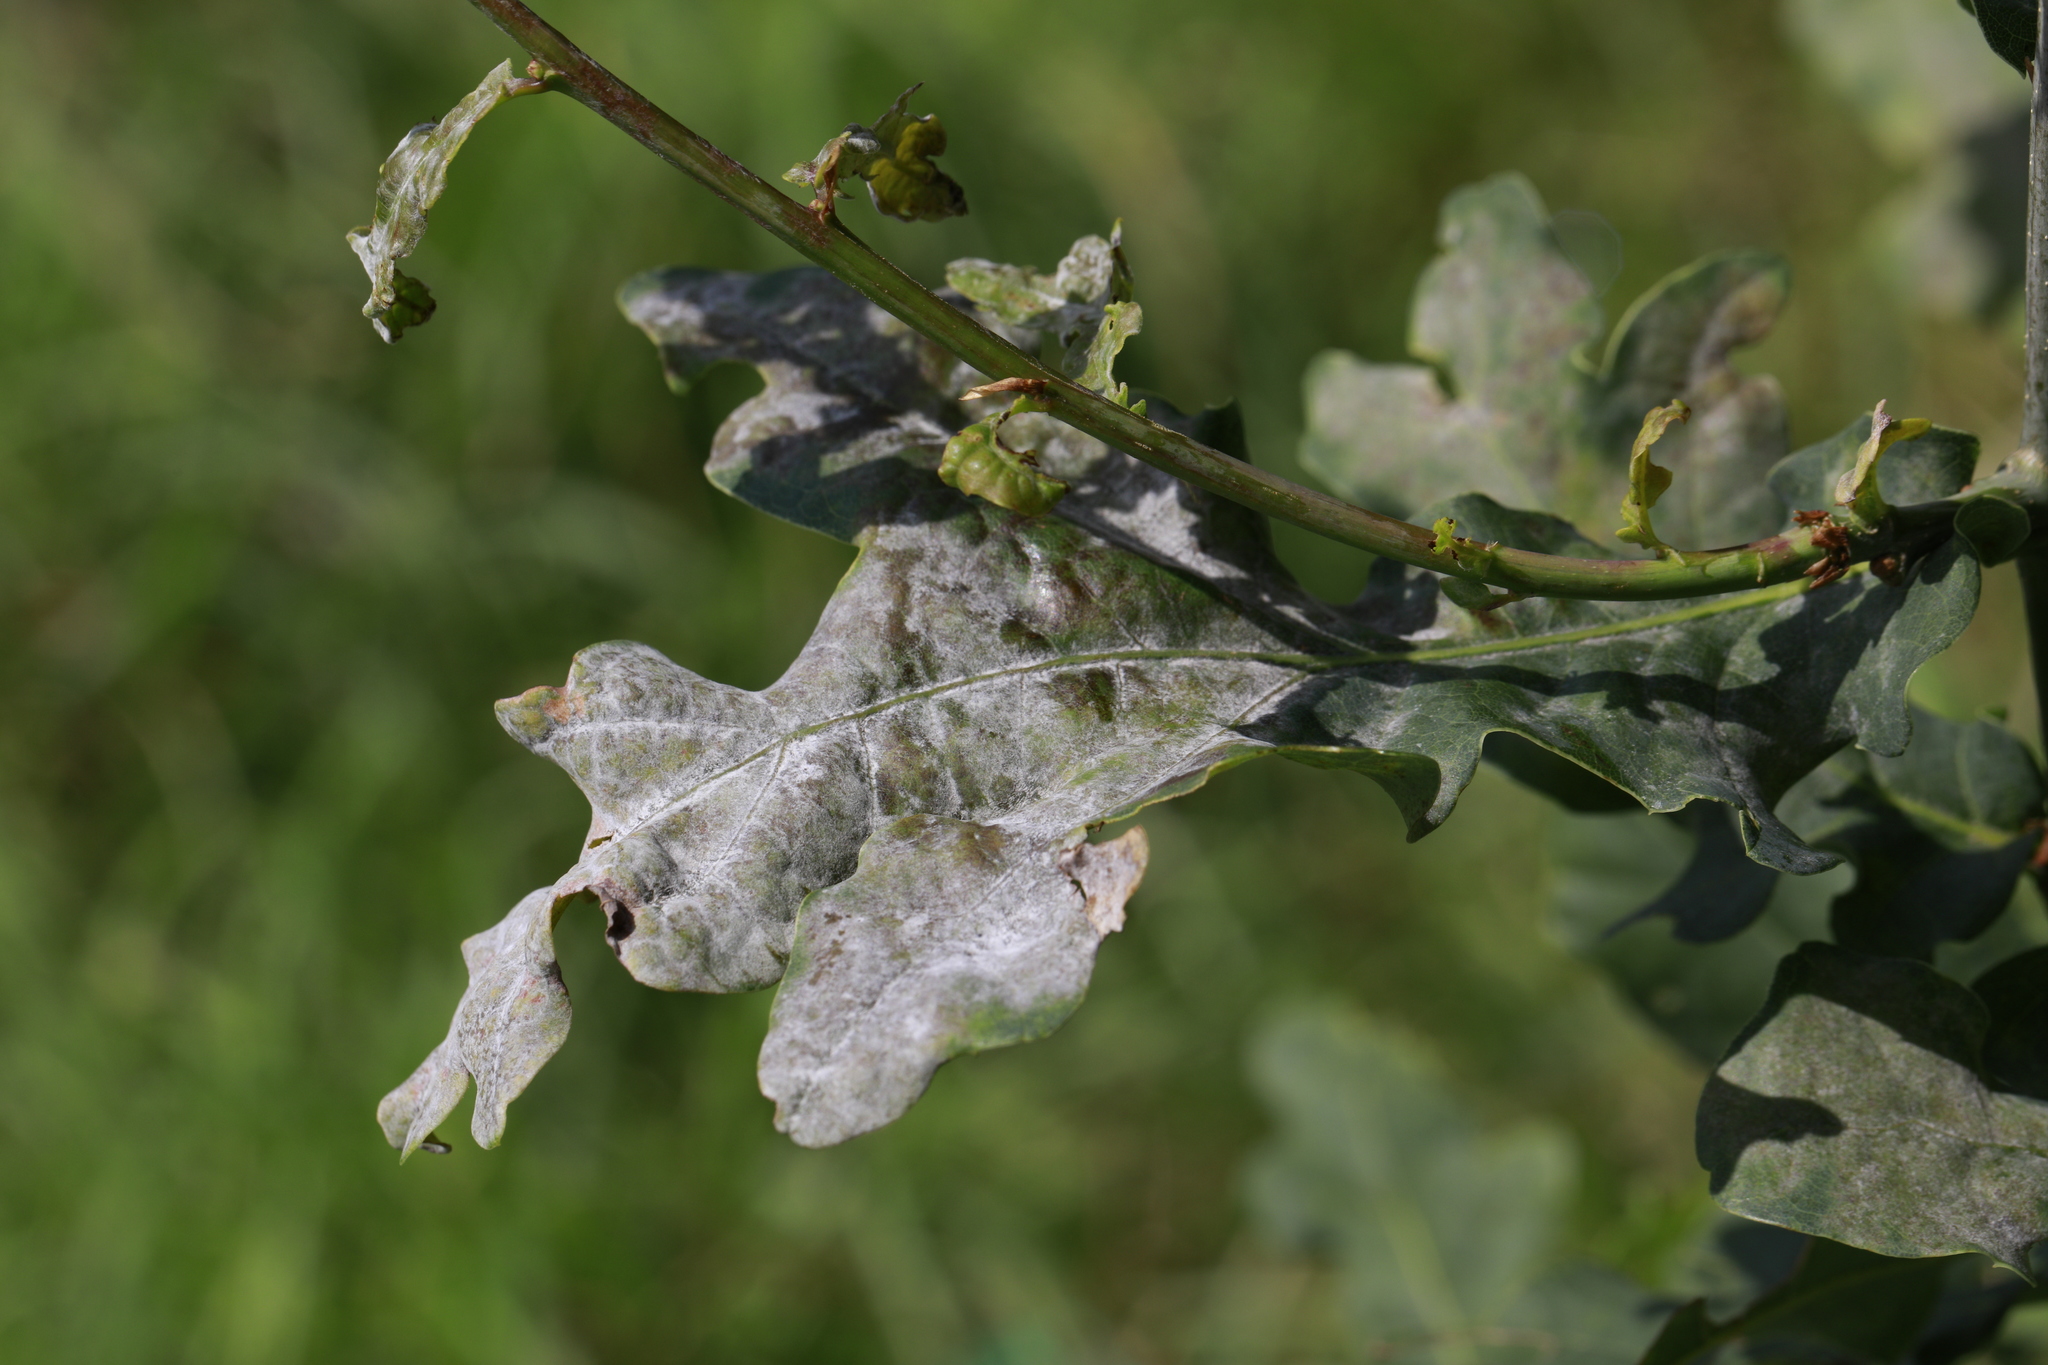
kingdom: Fungi
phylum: Ascomycota
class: Leotiomycetes
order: Helotiales
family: Erysiphaceae
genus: Erysiphe
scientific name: Erysiphe alphitoides
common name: Oak mildew
